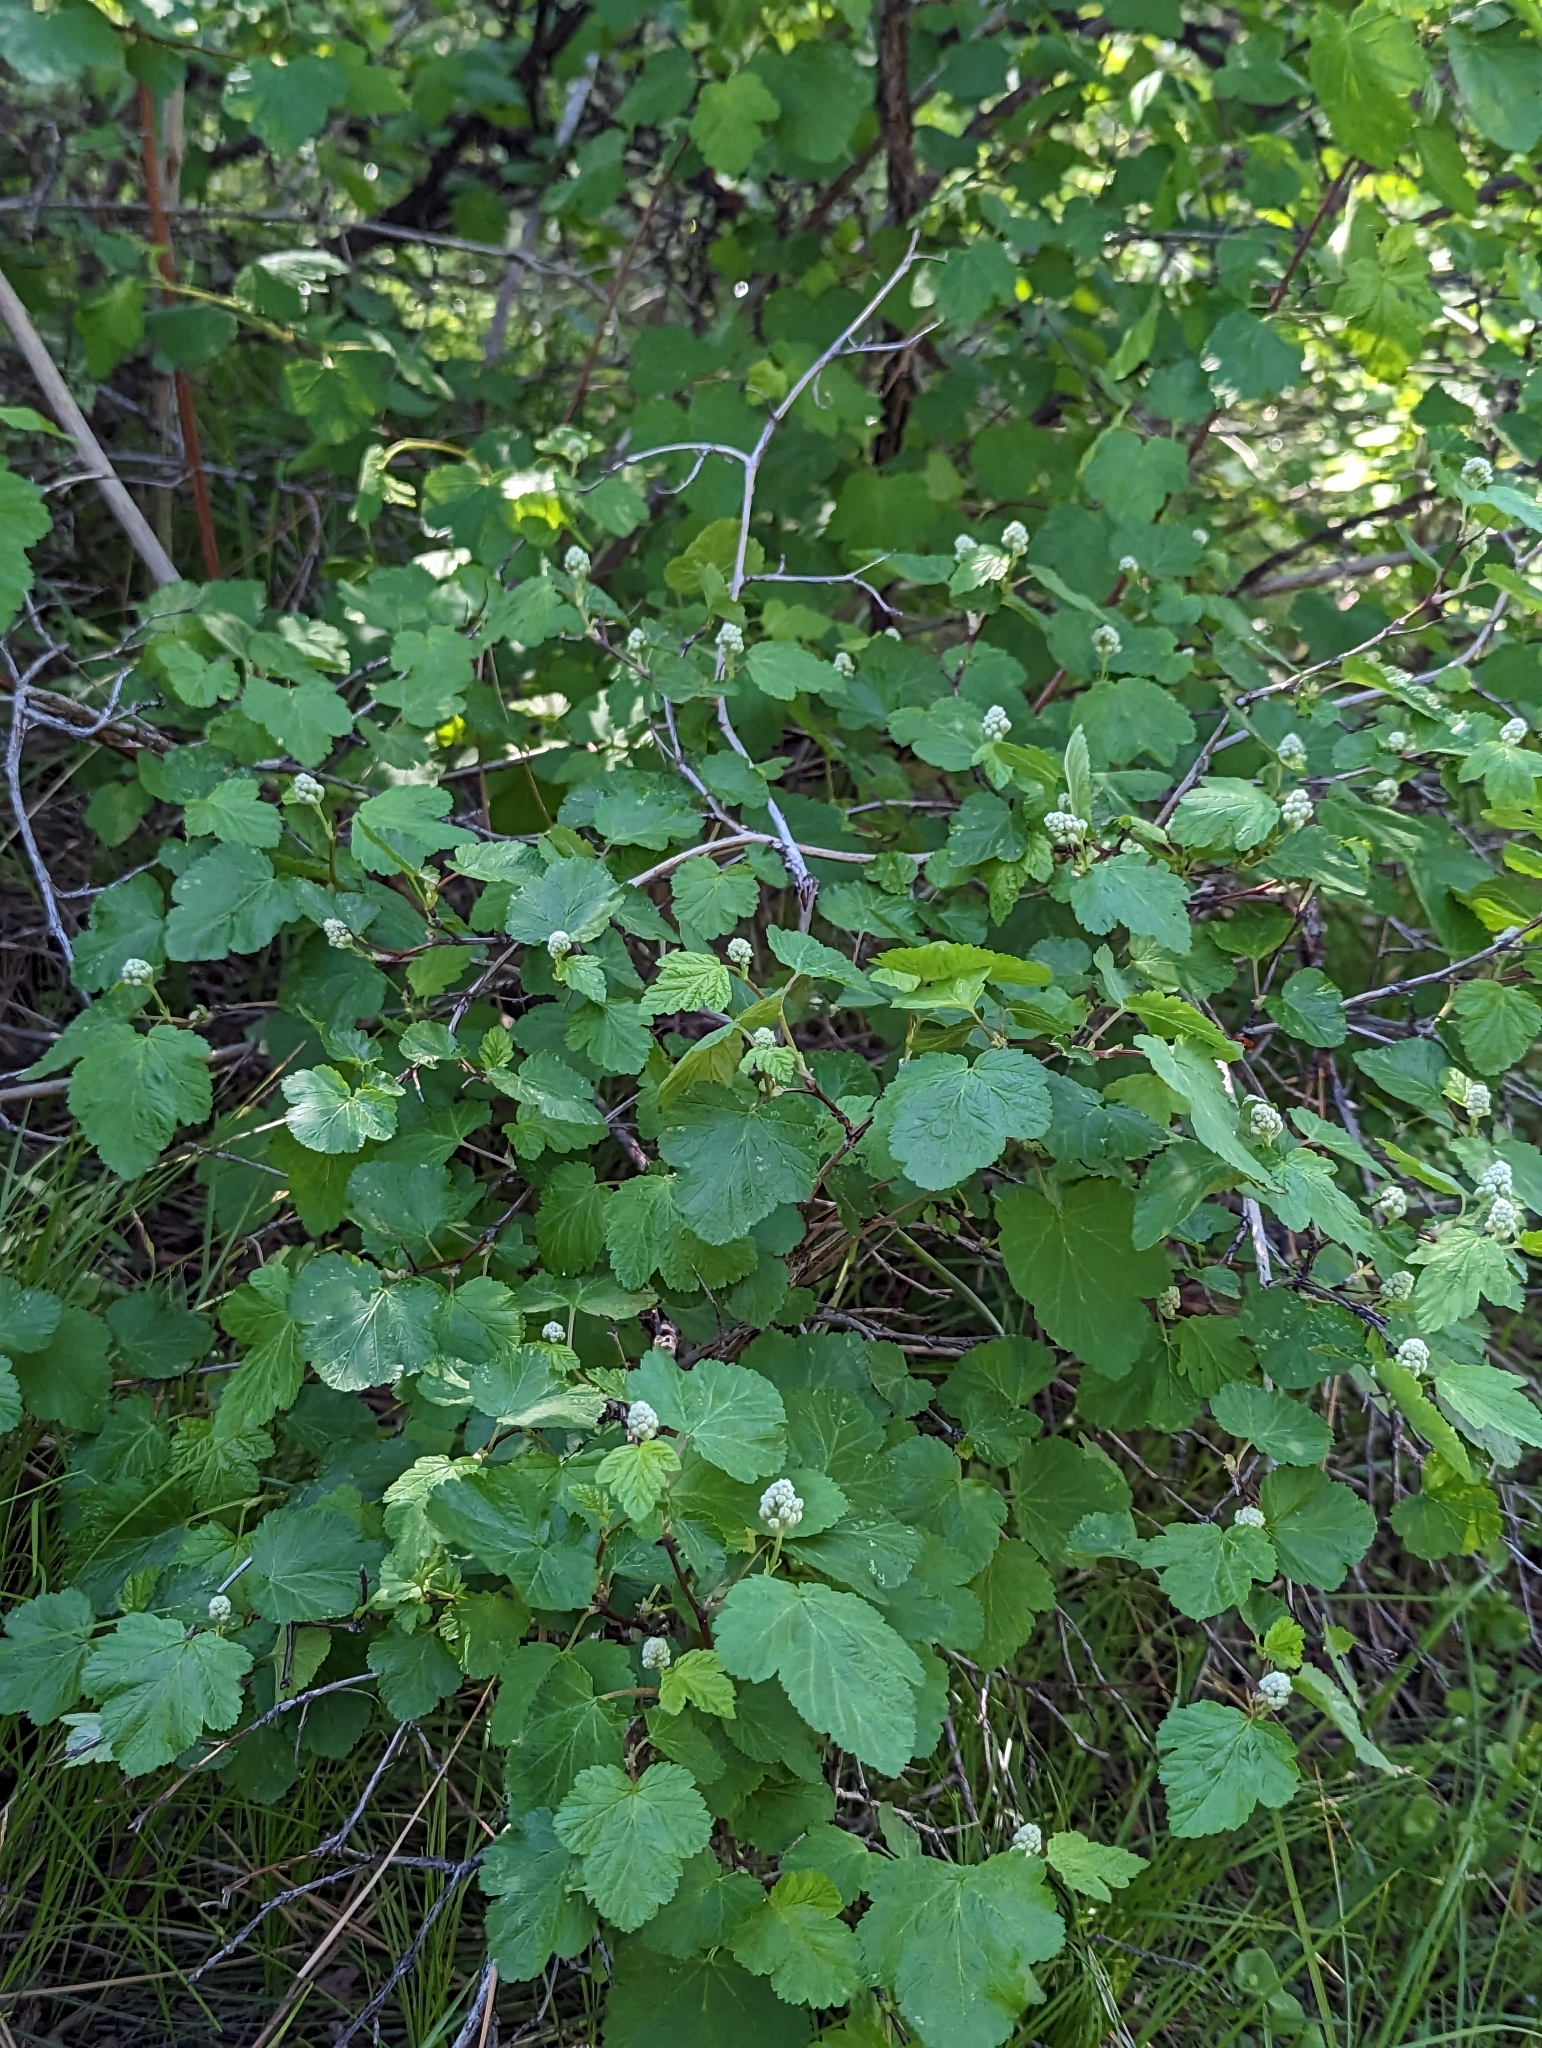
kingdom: Plantae
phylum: Tracheophyta
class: Magnoliopsida
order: Rosales
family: Rosaceae
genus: Physocarpus
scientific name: Physocarpus malvaceus
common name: Mallow ninebark
